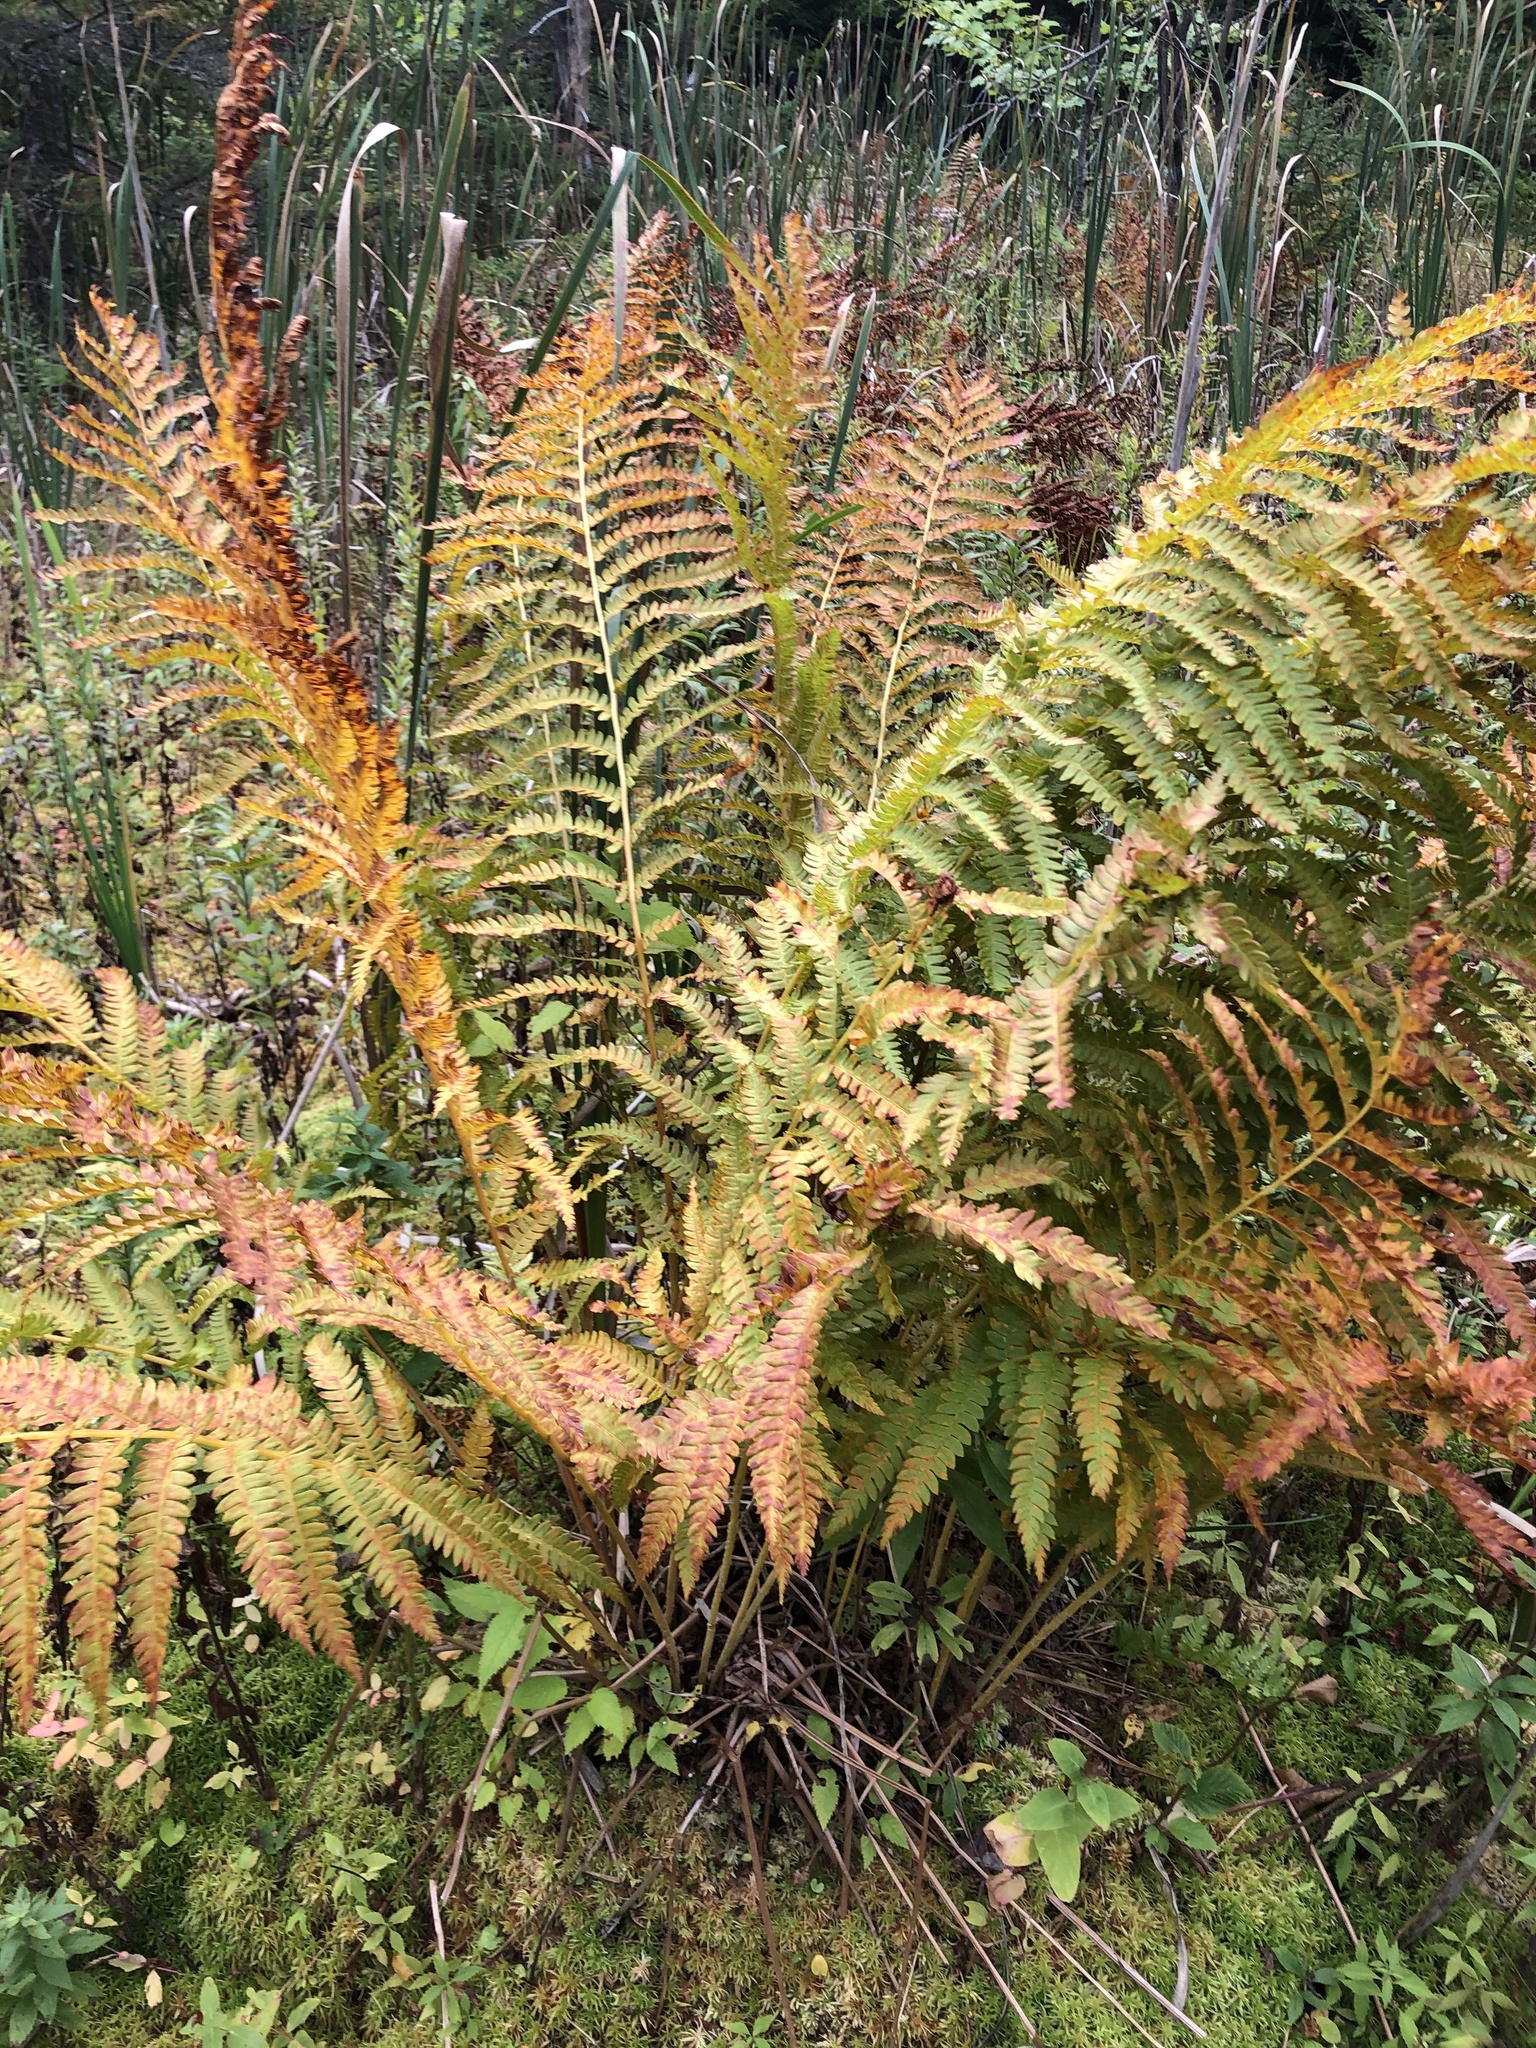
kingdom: Plantae
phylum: Tracheophyta
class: Polypodiopsida
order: Osmundales
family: Osmundaceae
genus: Osmundastrum
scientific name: Osmundastrum cinnamomeum
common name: Cinnamon fern
